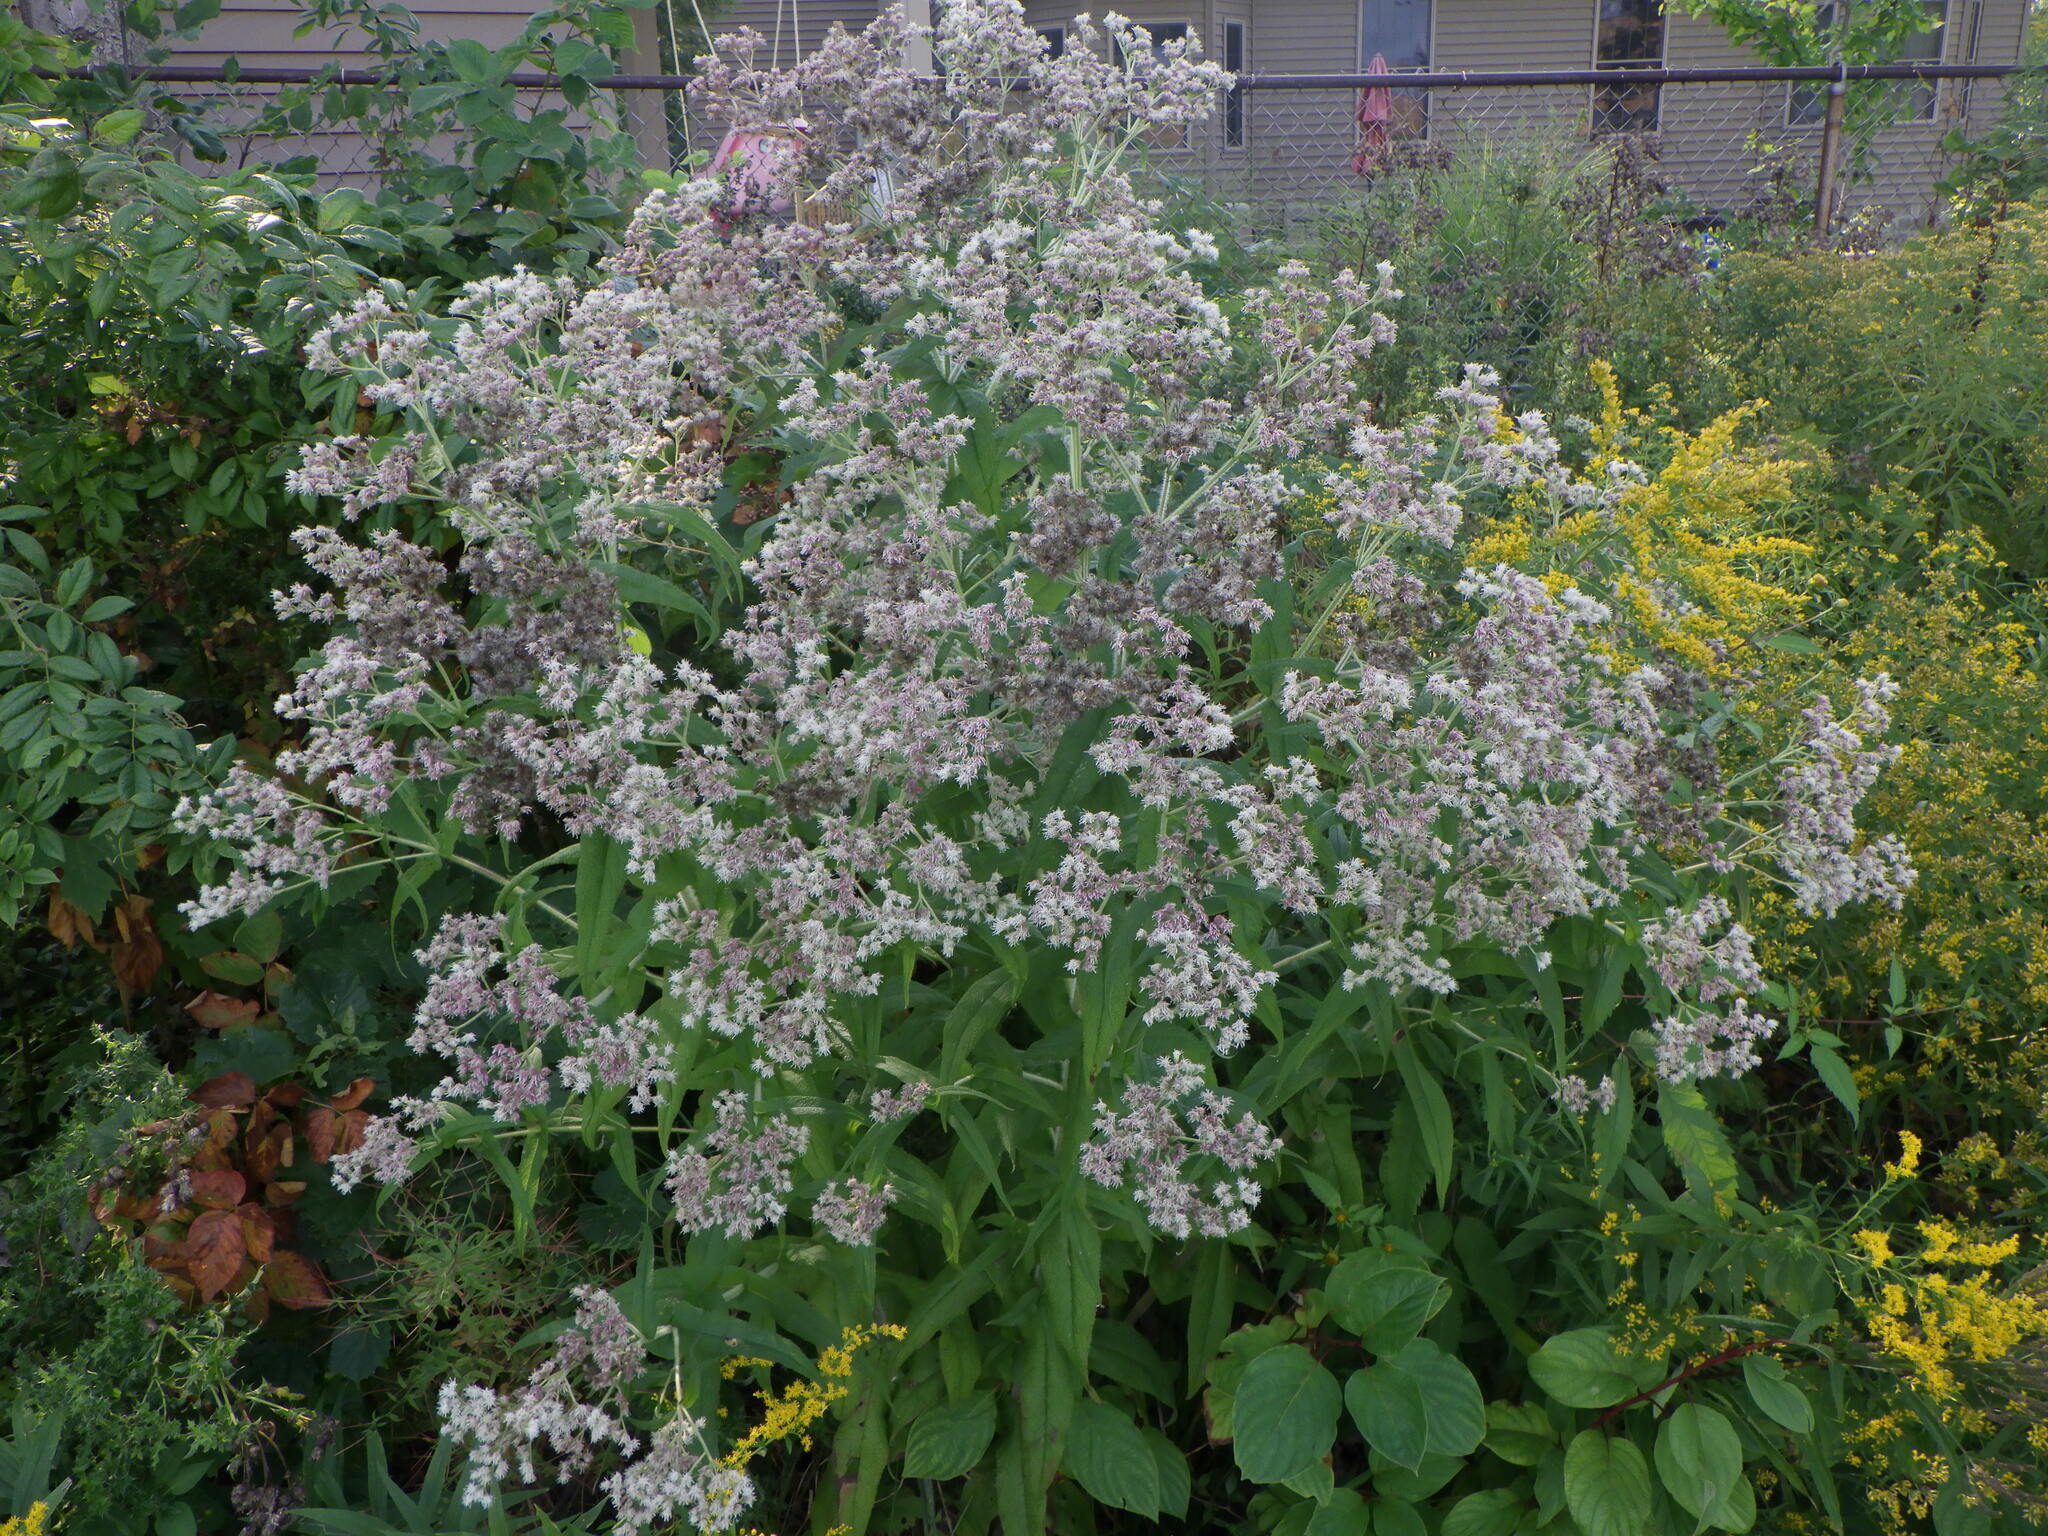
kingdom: Plantae
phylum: Tracheophyta
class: Magnoliopsida
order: Asterales
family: Asteraceae
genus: Eupatorium
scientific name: Eupatorium serotinum
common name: Late boneset
